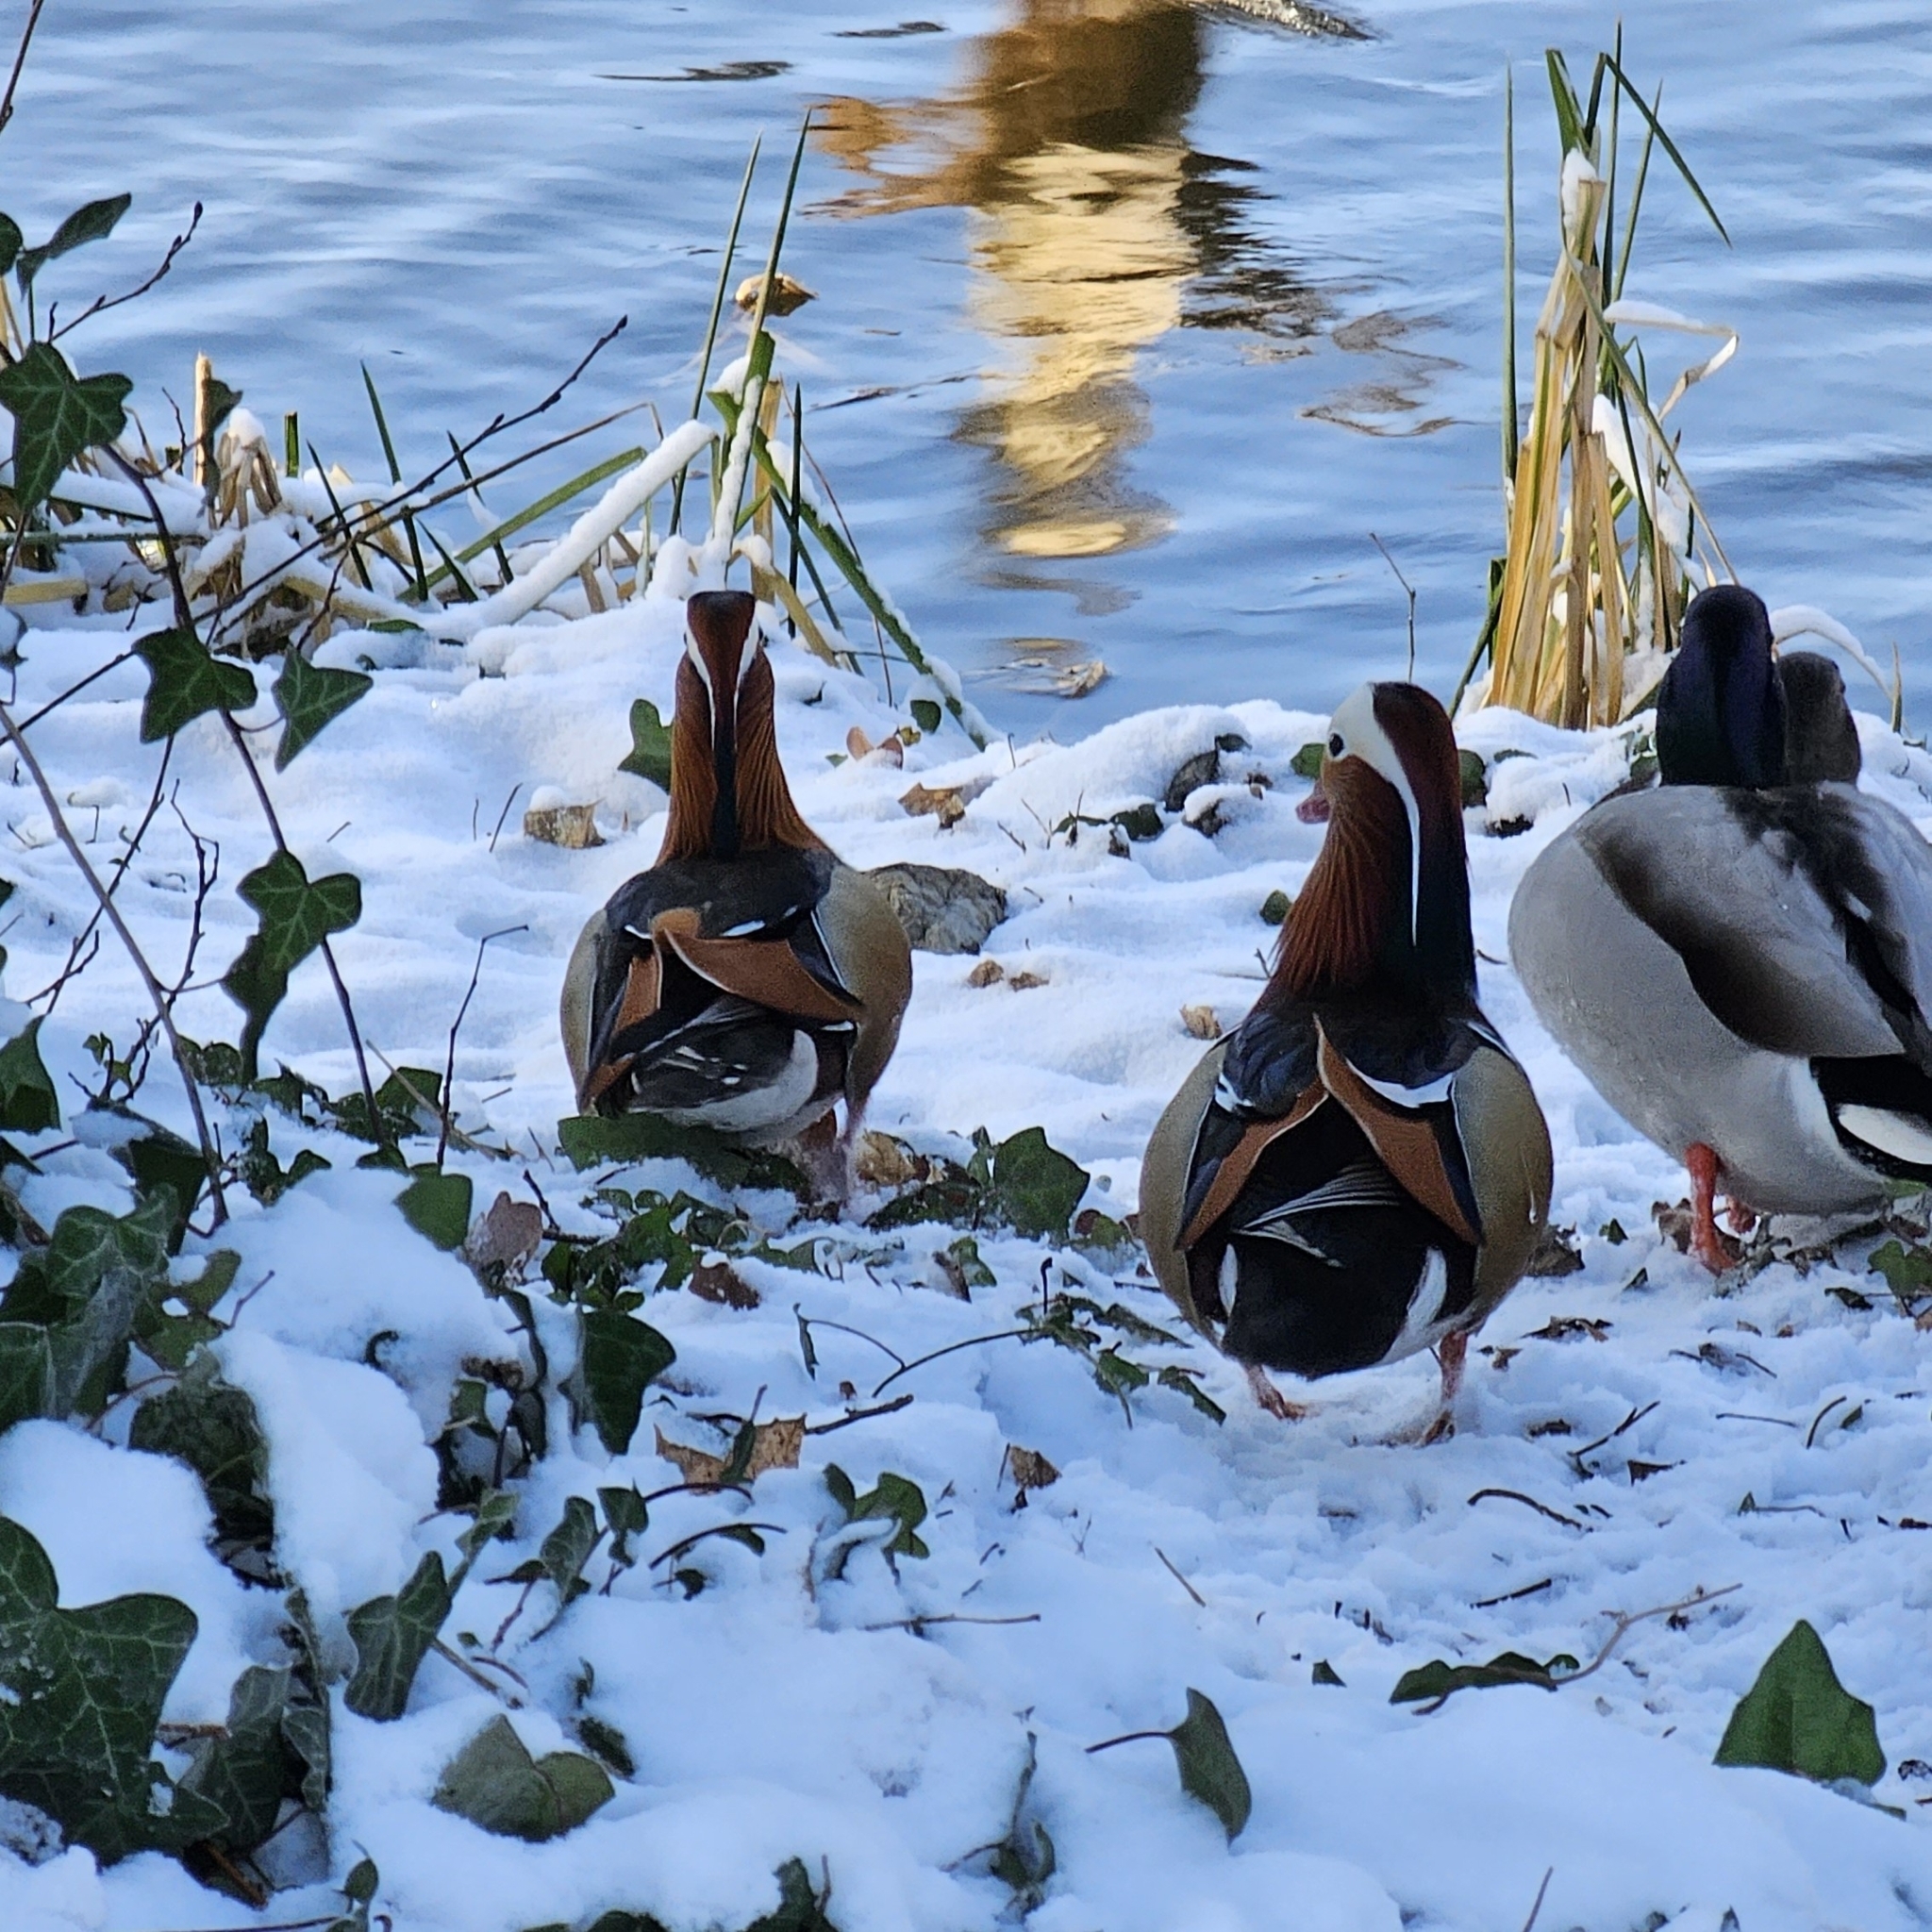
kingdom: Animalia
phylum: Chordata
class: Aves
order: Anseriformes
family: Anatidae
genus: Aix
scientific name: Aix galericulata
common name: Mandarin duck
